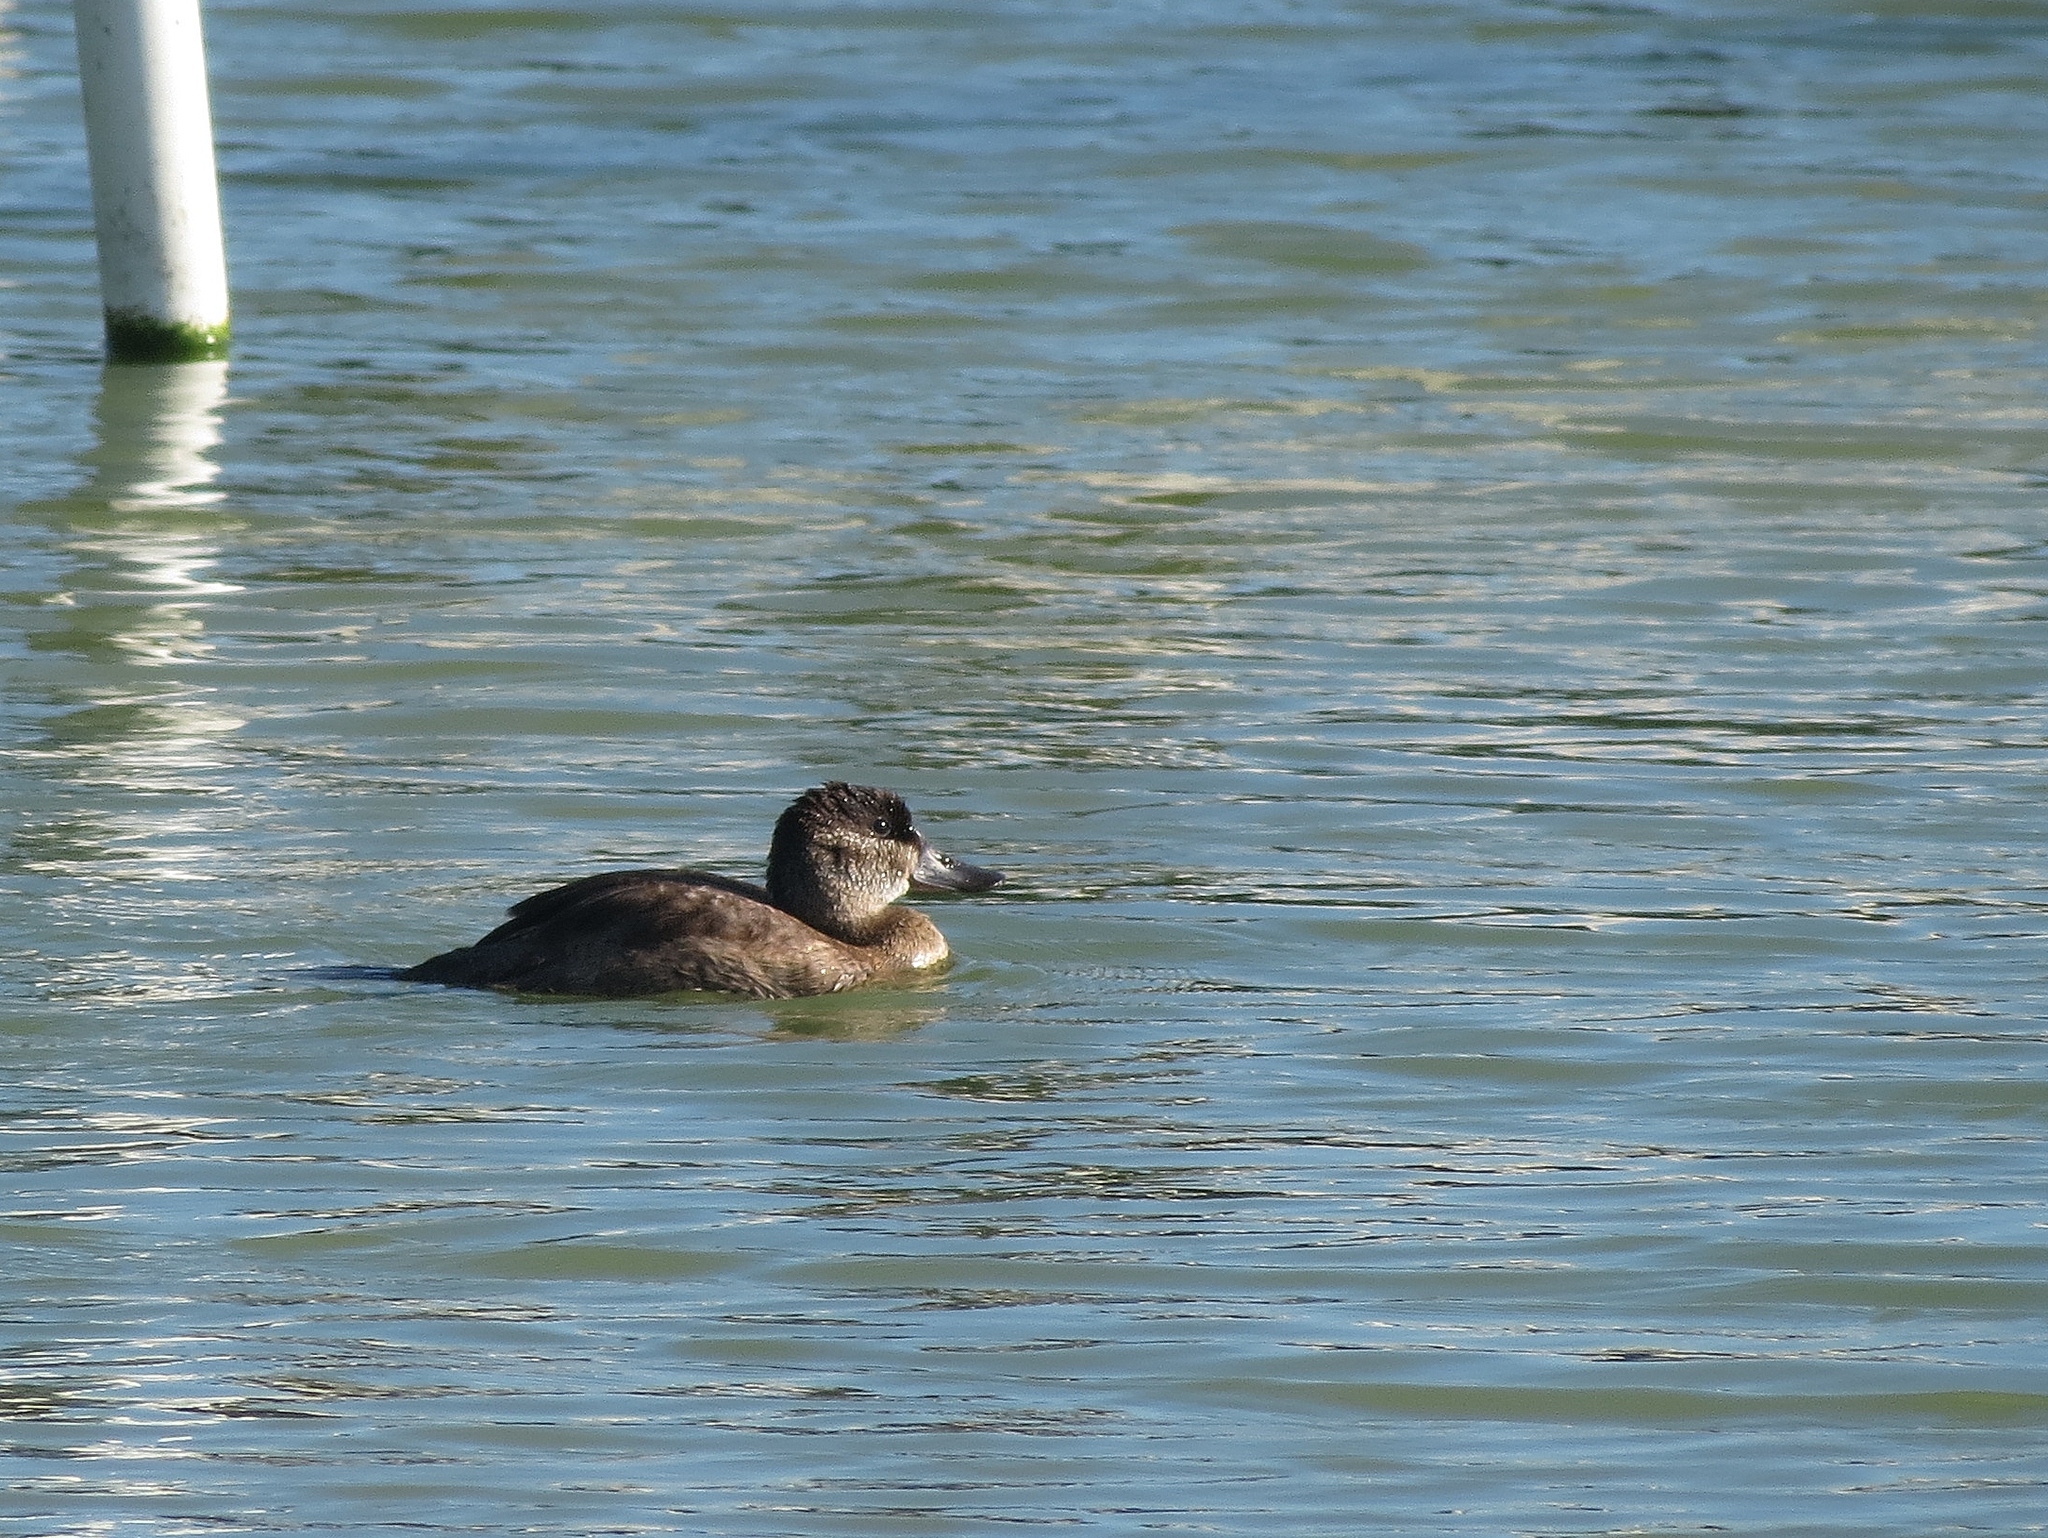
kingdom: Animalia
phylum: Chordata
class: Aves
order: Anseriformes
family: Anatidae
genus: Oxyura
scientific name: Oxyura jamaicensis
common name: Ruddy duck
